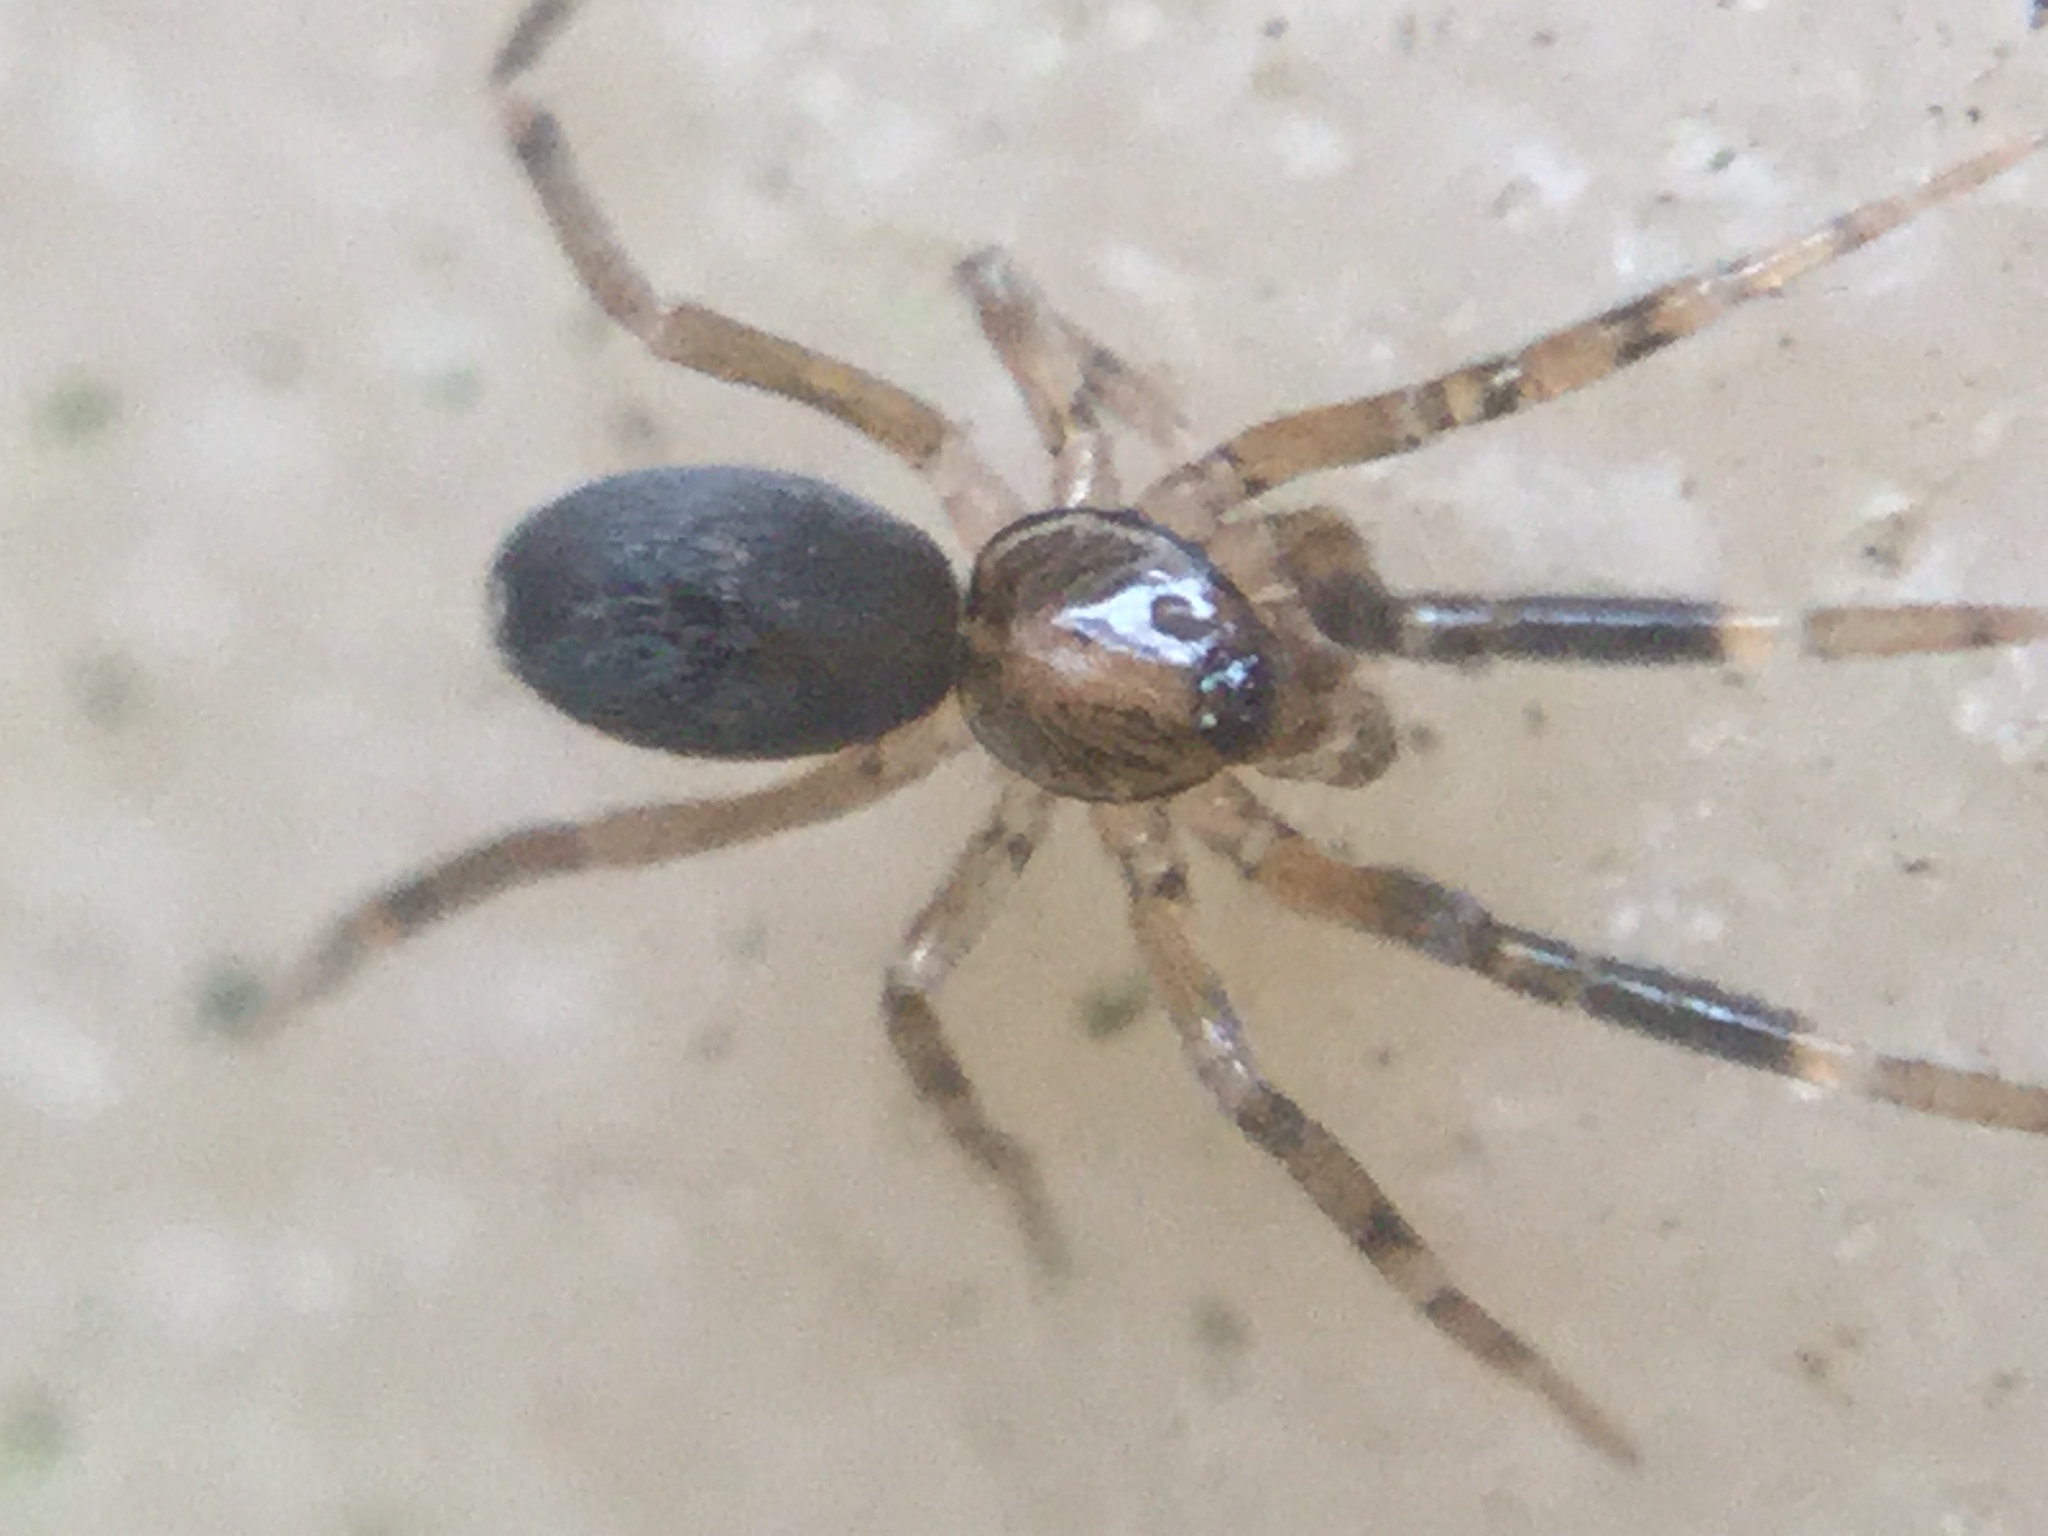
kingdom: Animalia
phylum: Arthropoda
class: Arachnida
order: Araneae
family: Phrurolithidae
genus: Phrurotimpus
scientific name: Phrurotimpus borealis
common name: Greater ant-mimic corinne spider
